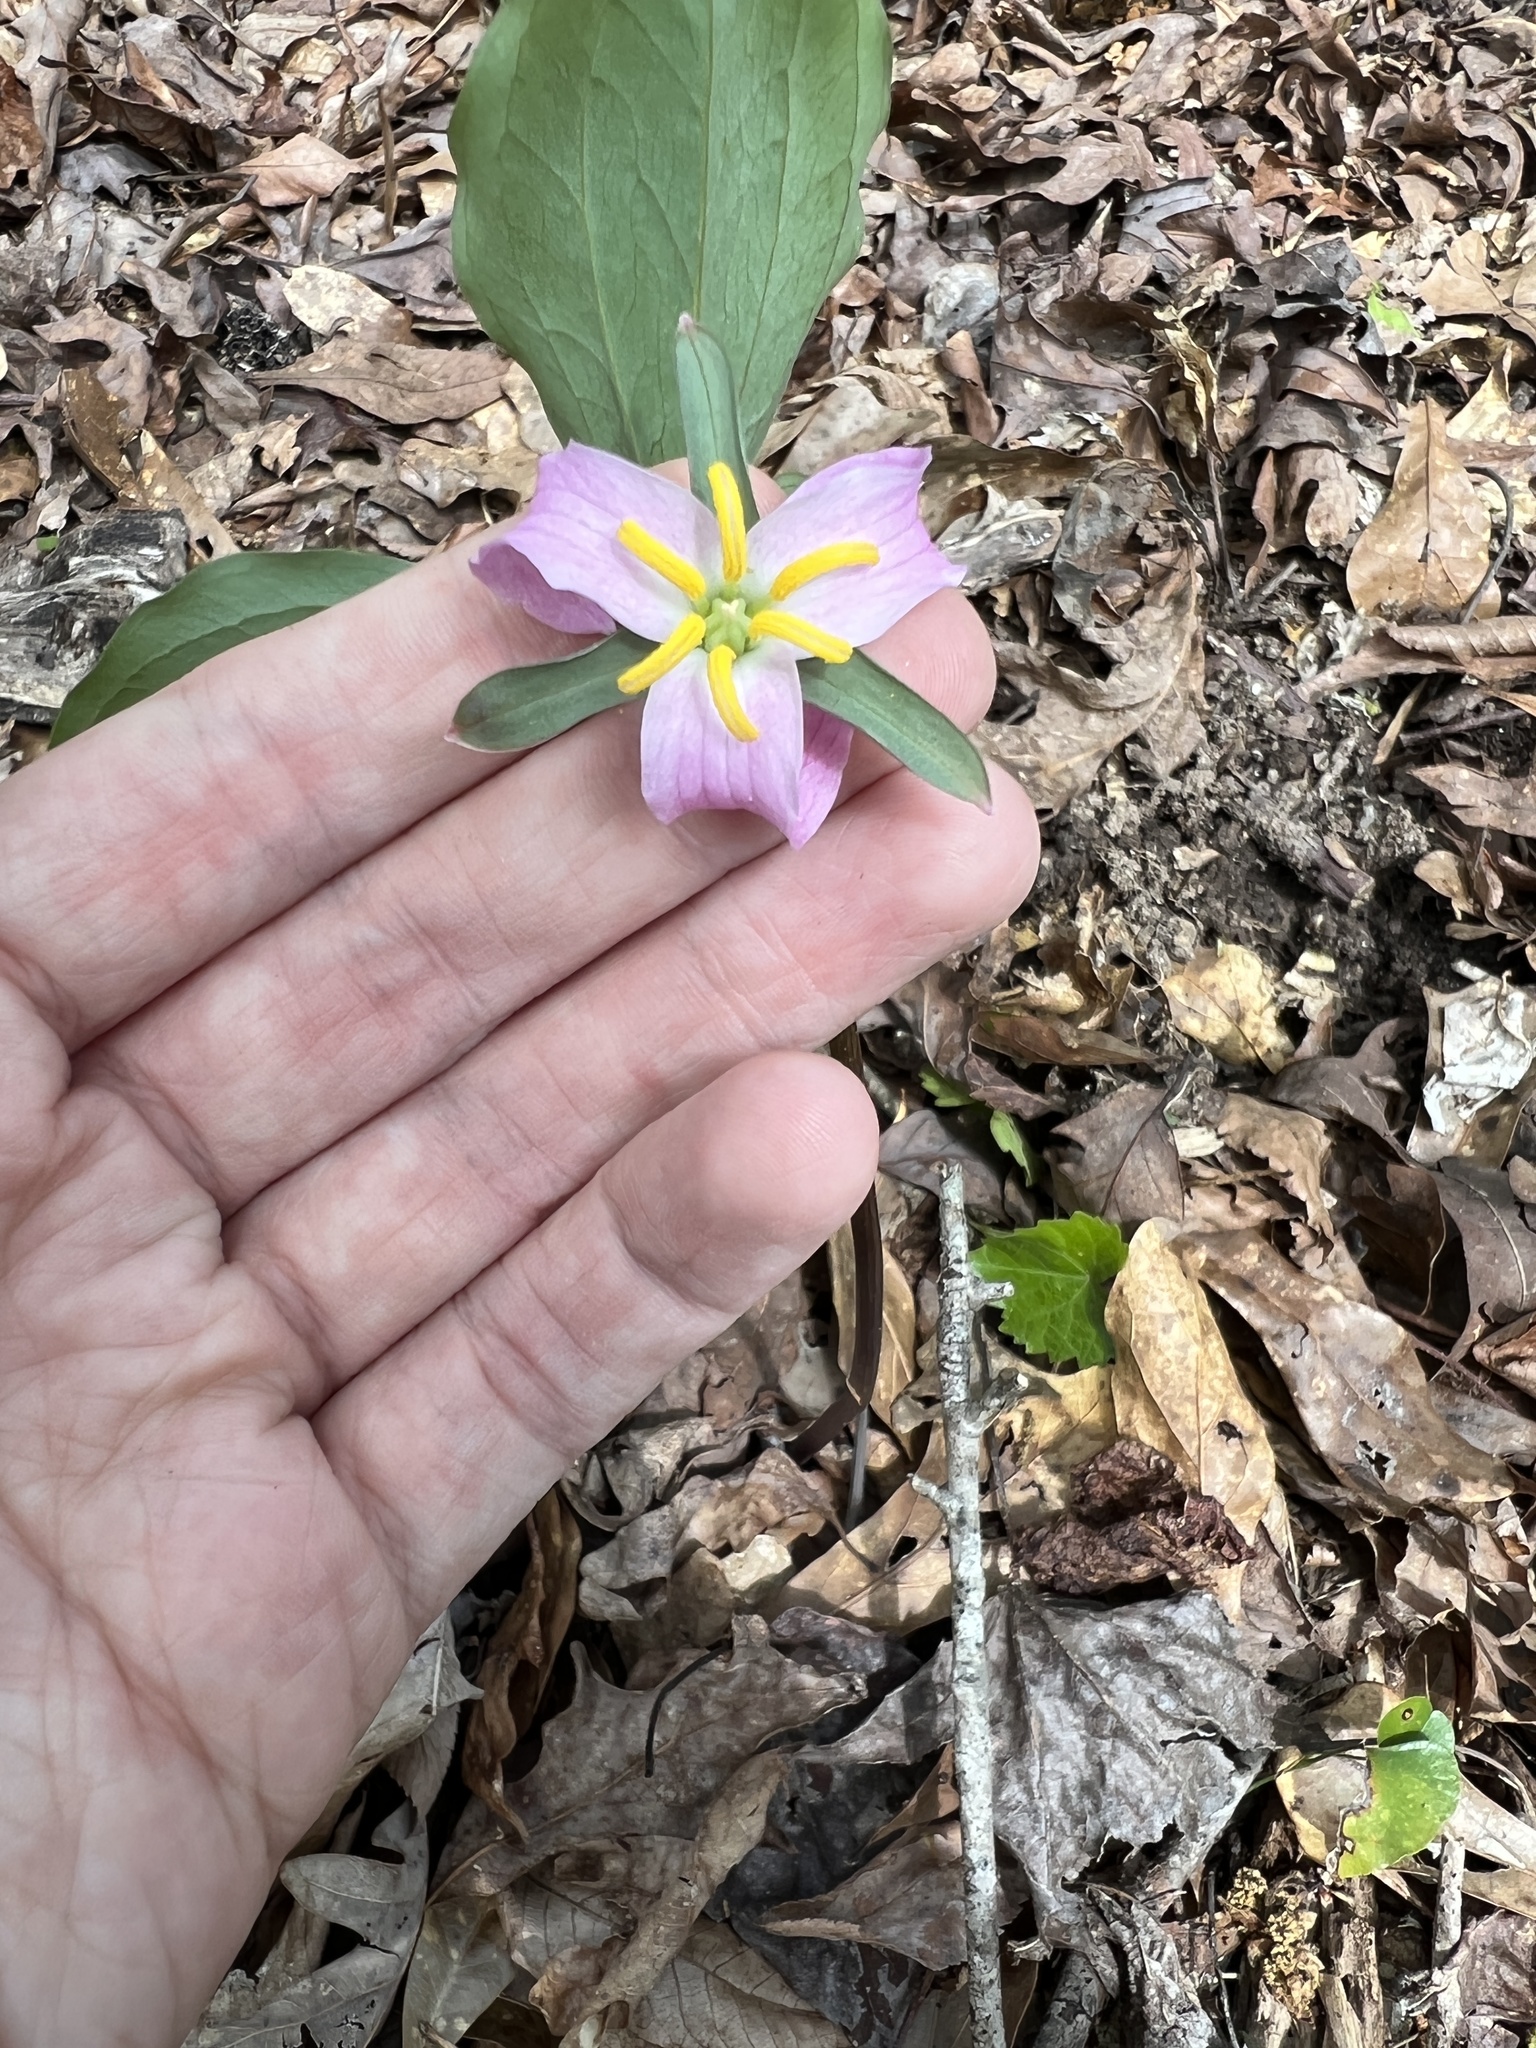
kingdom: Plantae
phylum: Tracheophyta
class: Liliopsida
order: Liliales
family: Melanthiaceae
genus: Trillium
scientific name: Trillium catesbaei
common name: Bashful trillium
